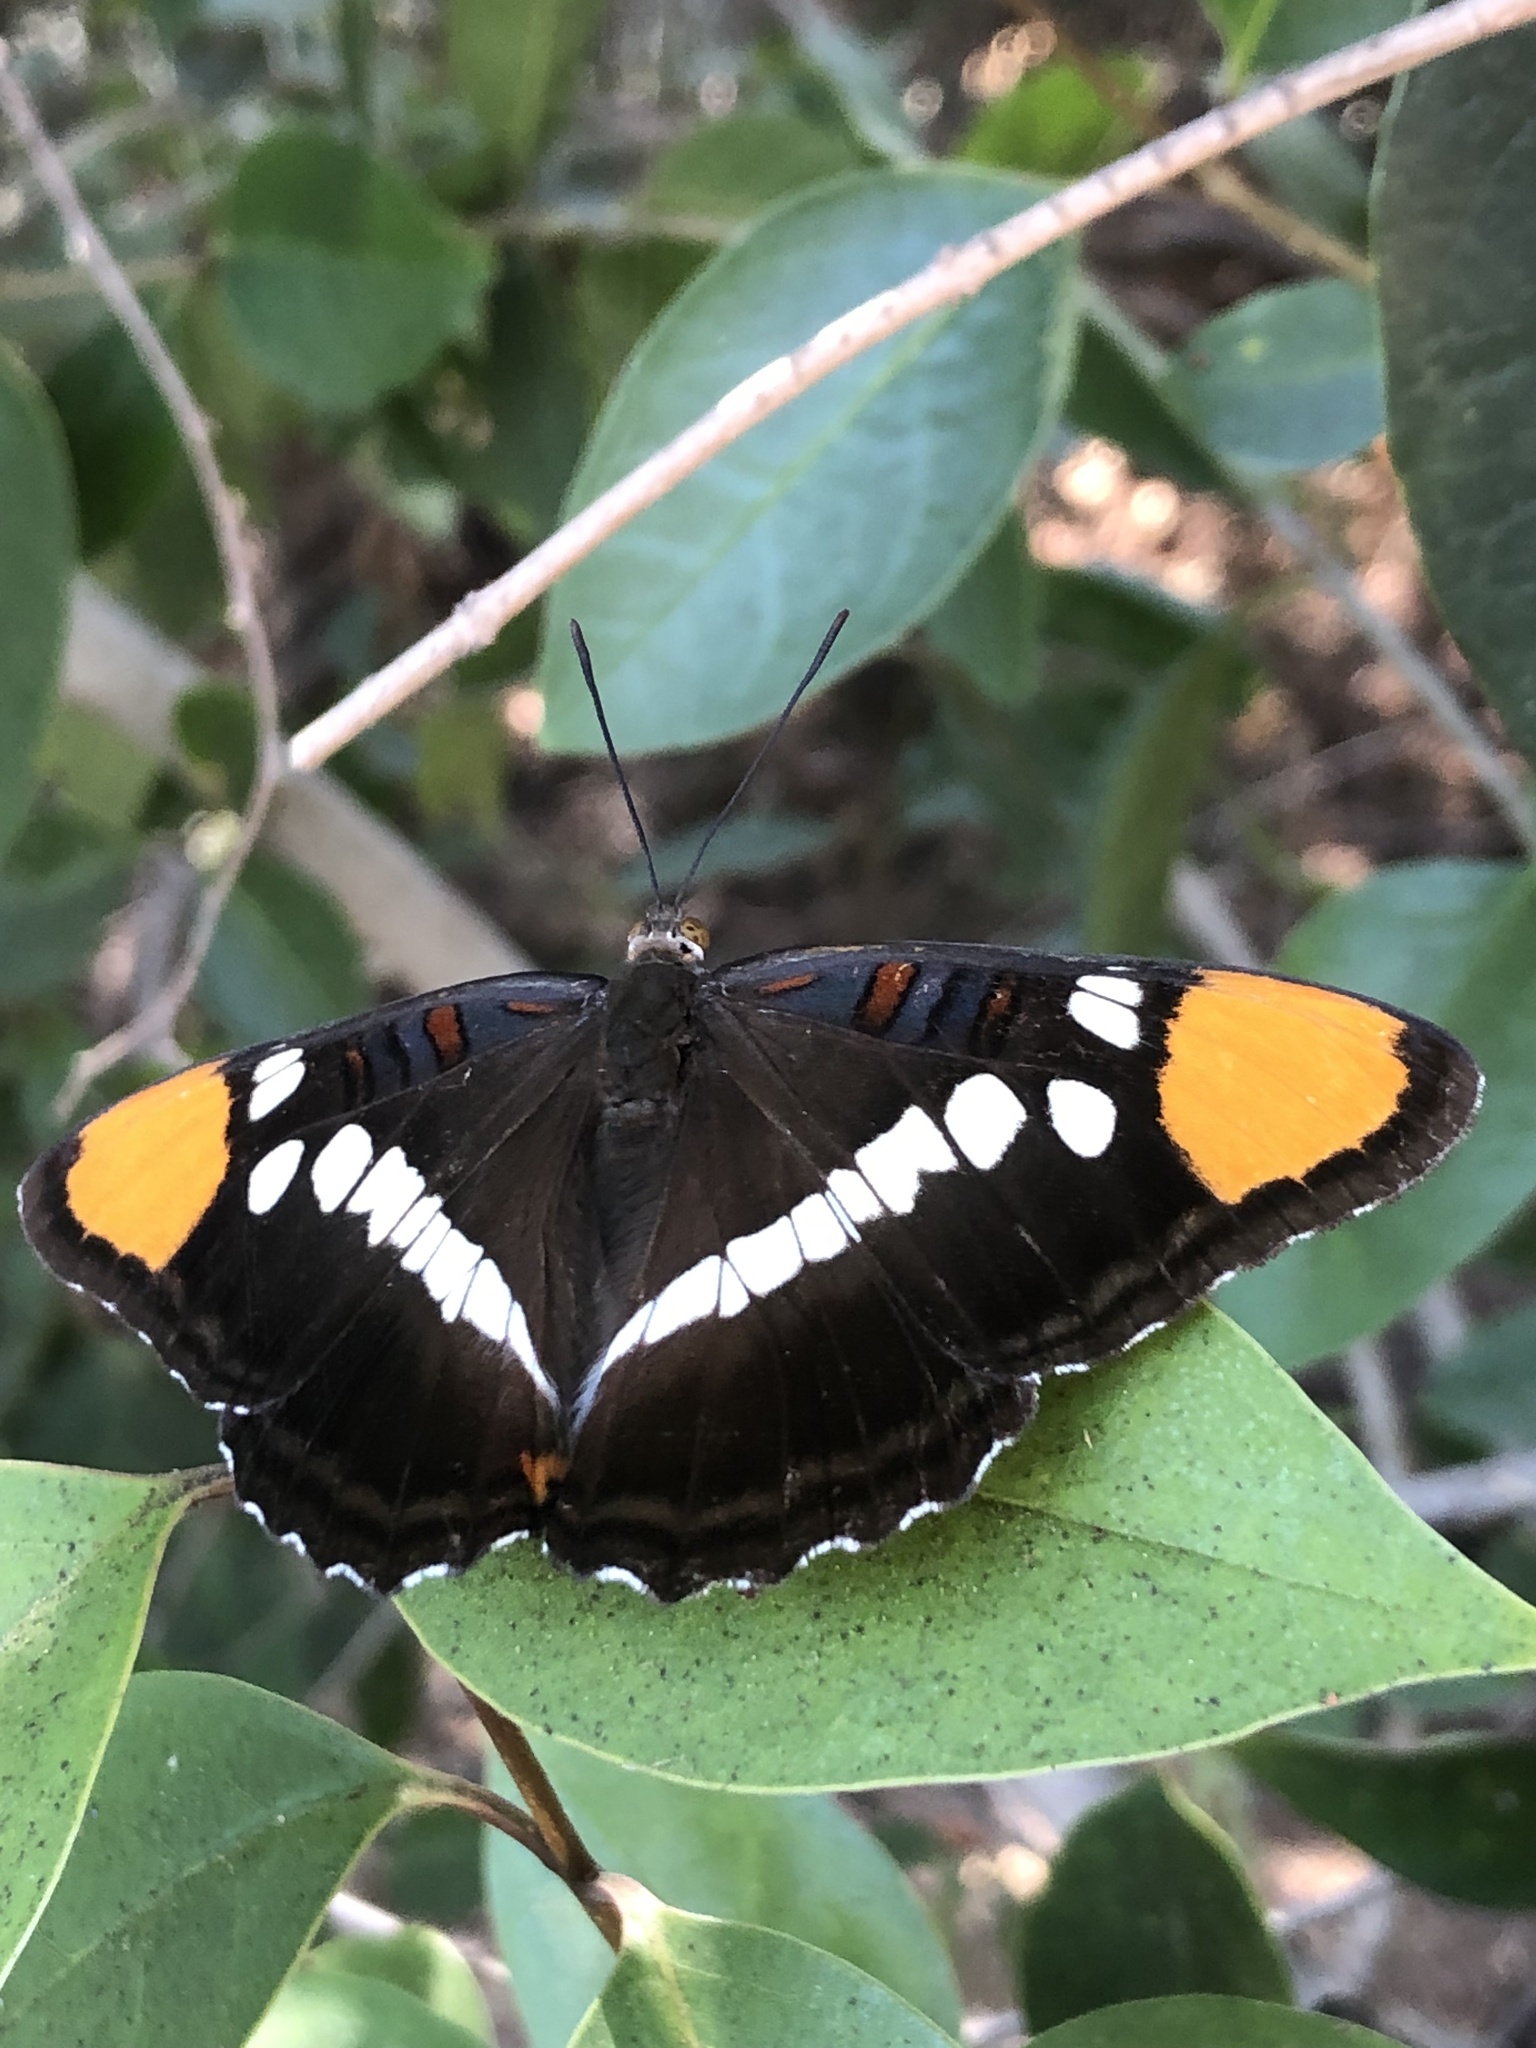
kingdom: Animalia
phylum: Arthropoda
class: Insecta
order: Lepidoptera
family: Nymphalidae
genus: Limenitis
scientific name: Limenitis bredowii
